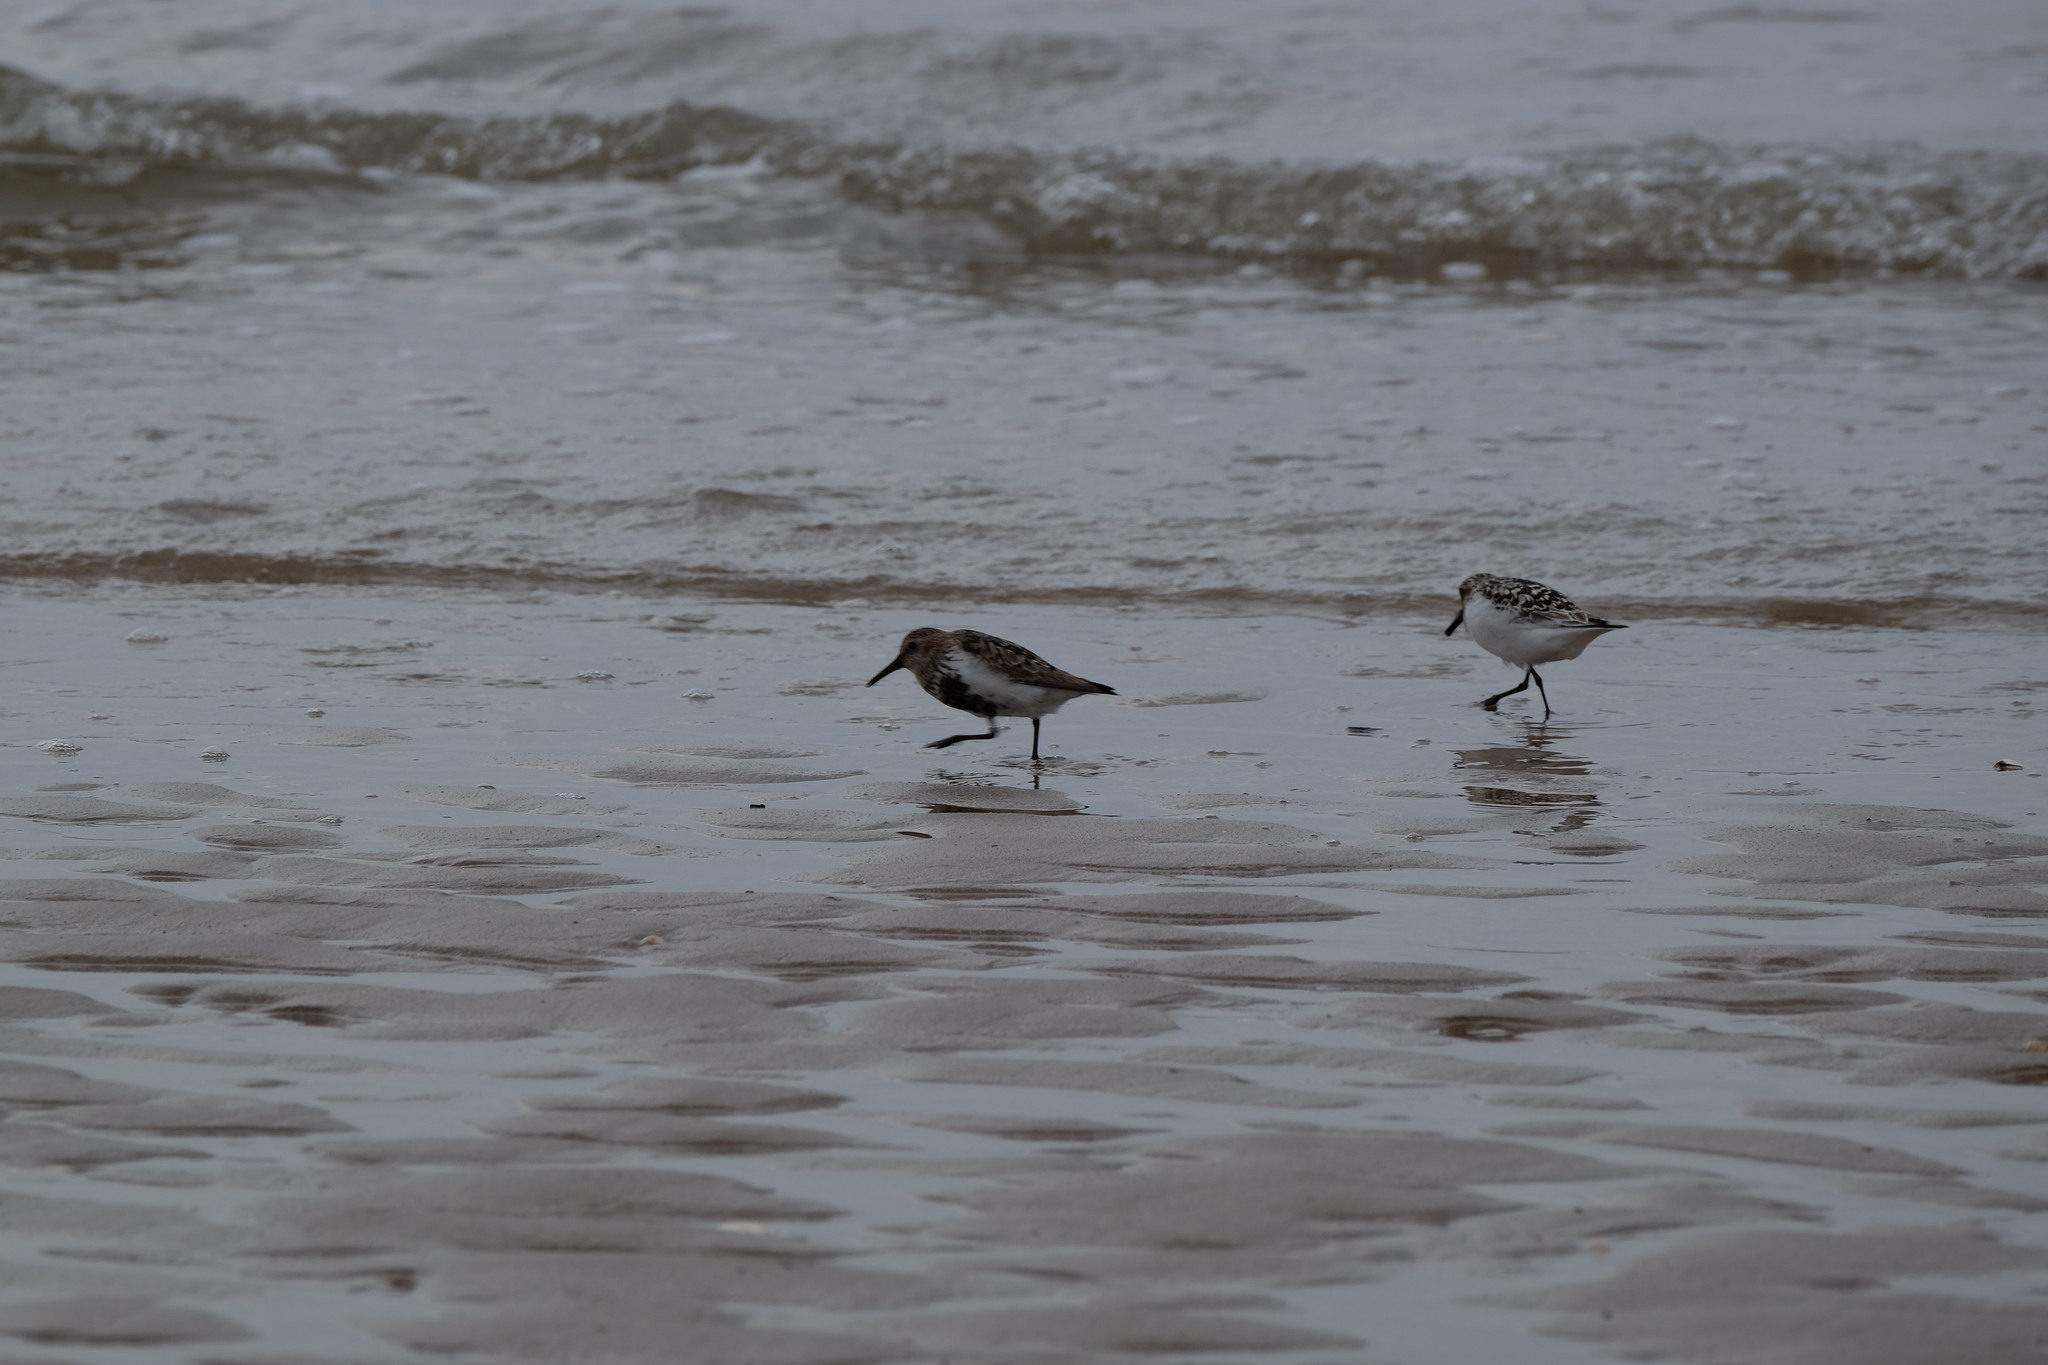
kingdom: Animalia
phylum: Chordata
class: Aves
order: Charadriiformes
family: Scolopacidae
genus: Calidris
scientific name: Calidris alpina
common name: Dunlin
